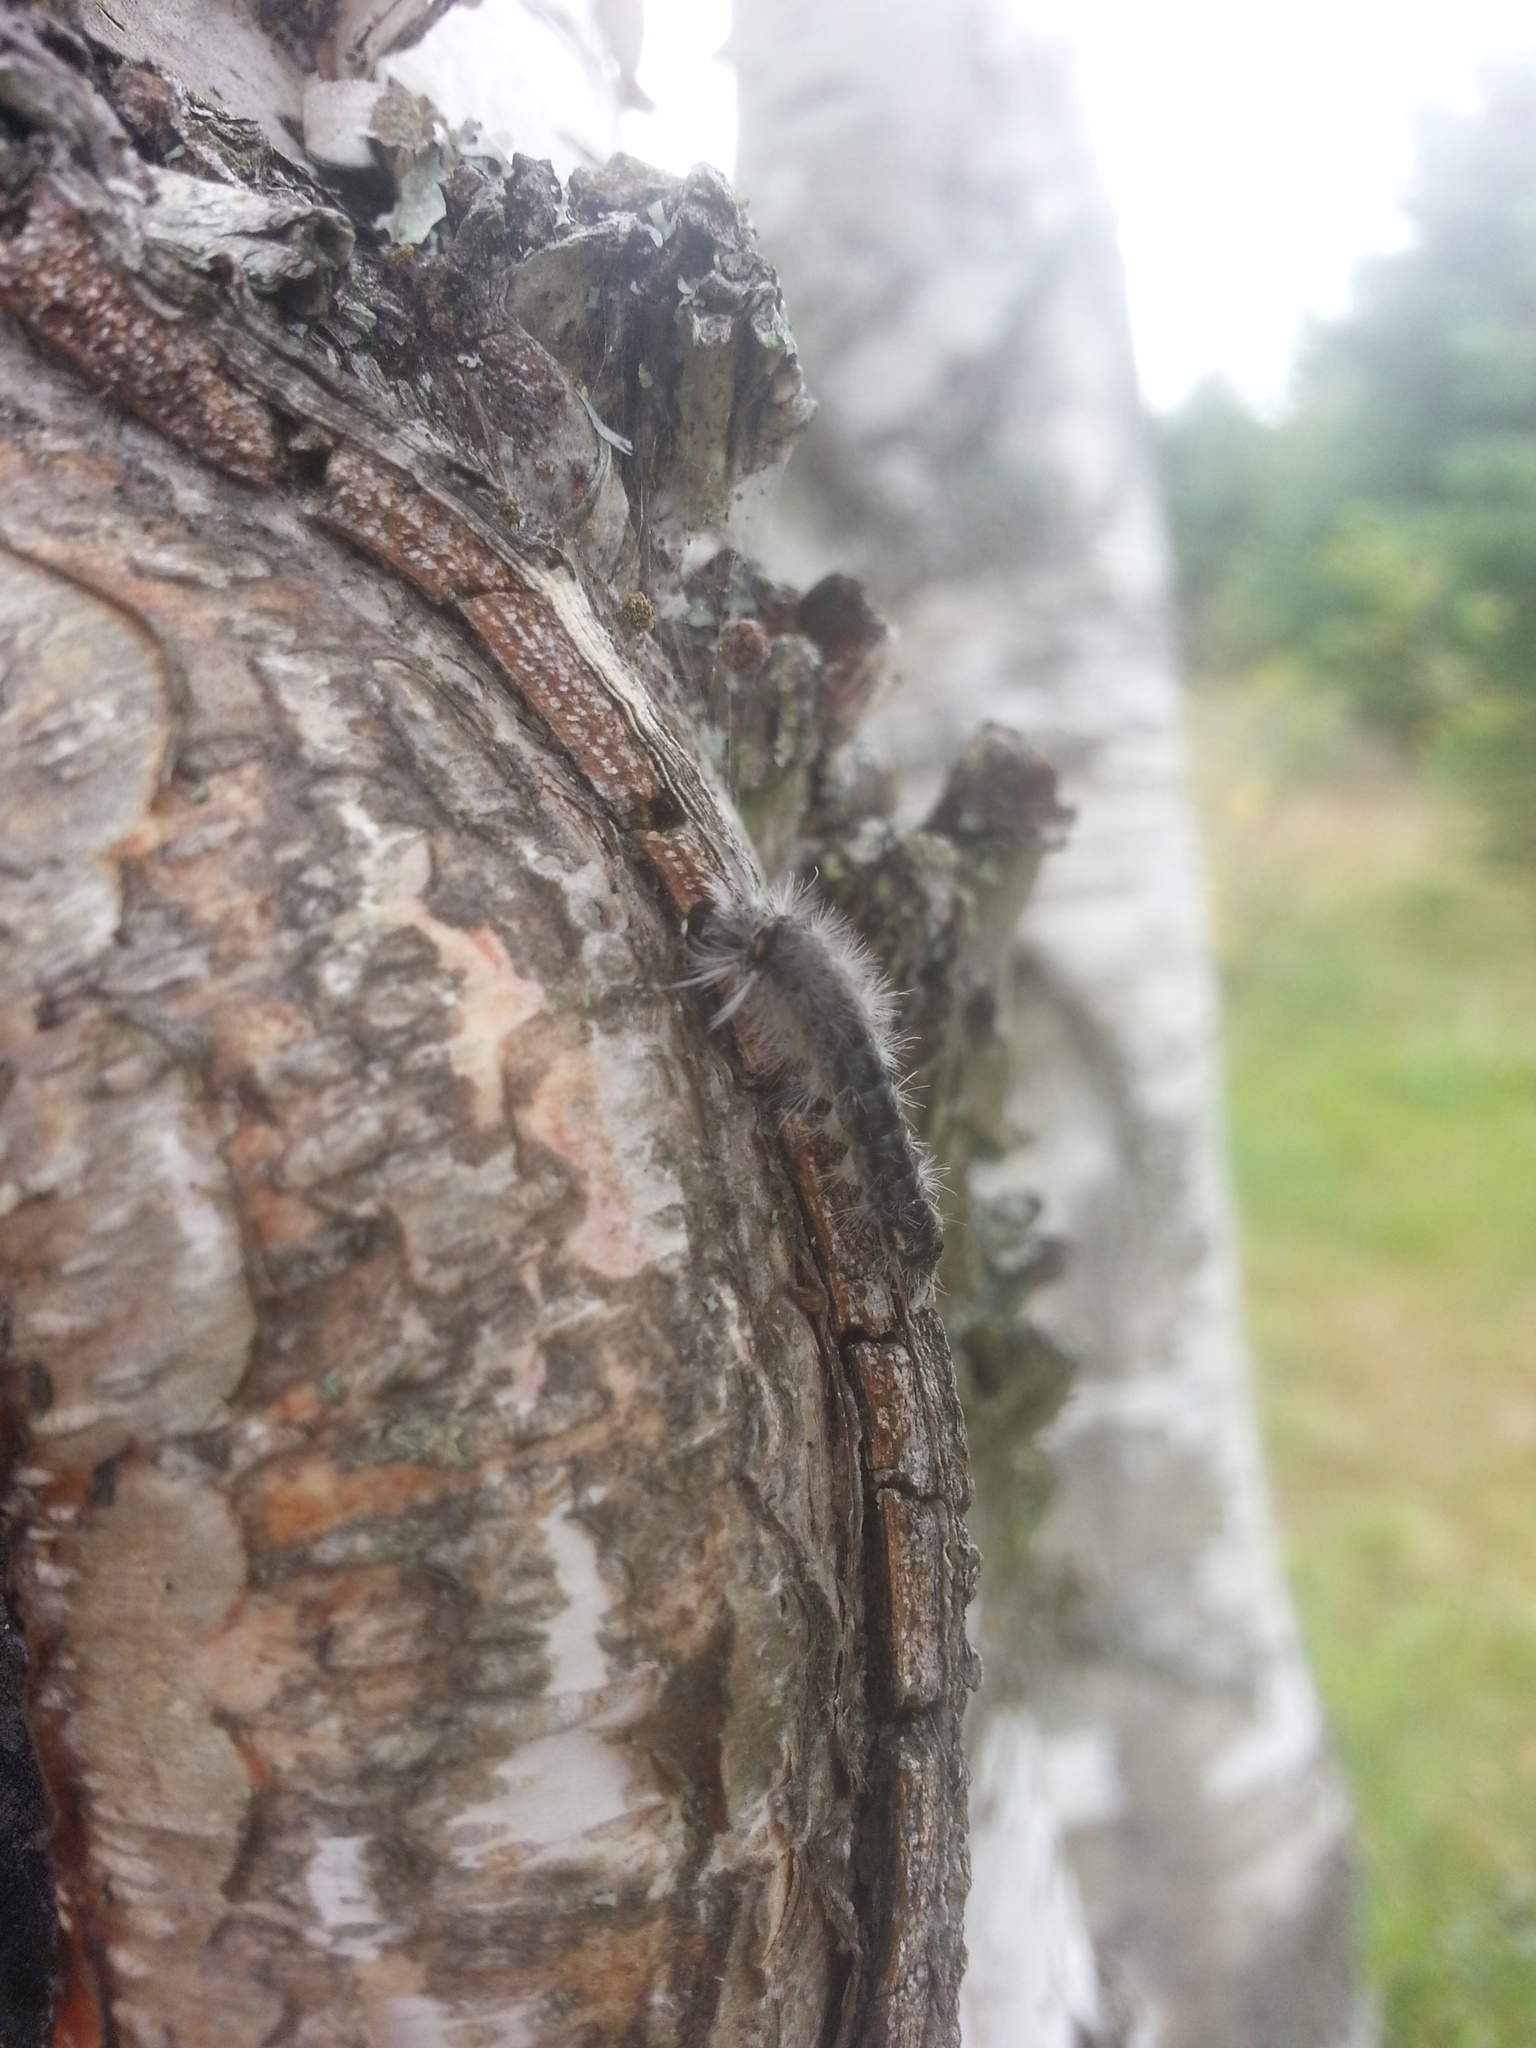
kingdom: Animalia
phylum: Arthropoda
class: Insecta
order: Lepidoptera
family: Erebidae
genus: Halysidota
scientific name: Halysidota tessellaris
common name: Banded tussock moth
